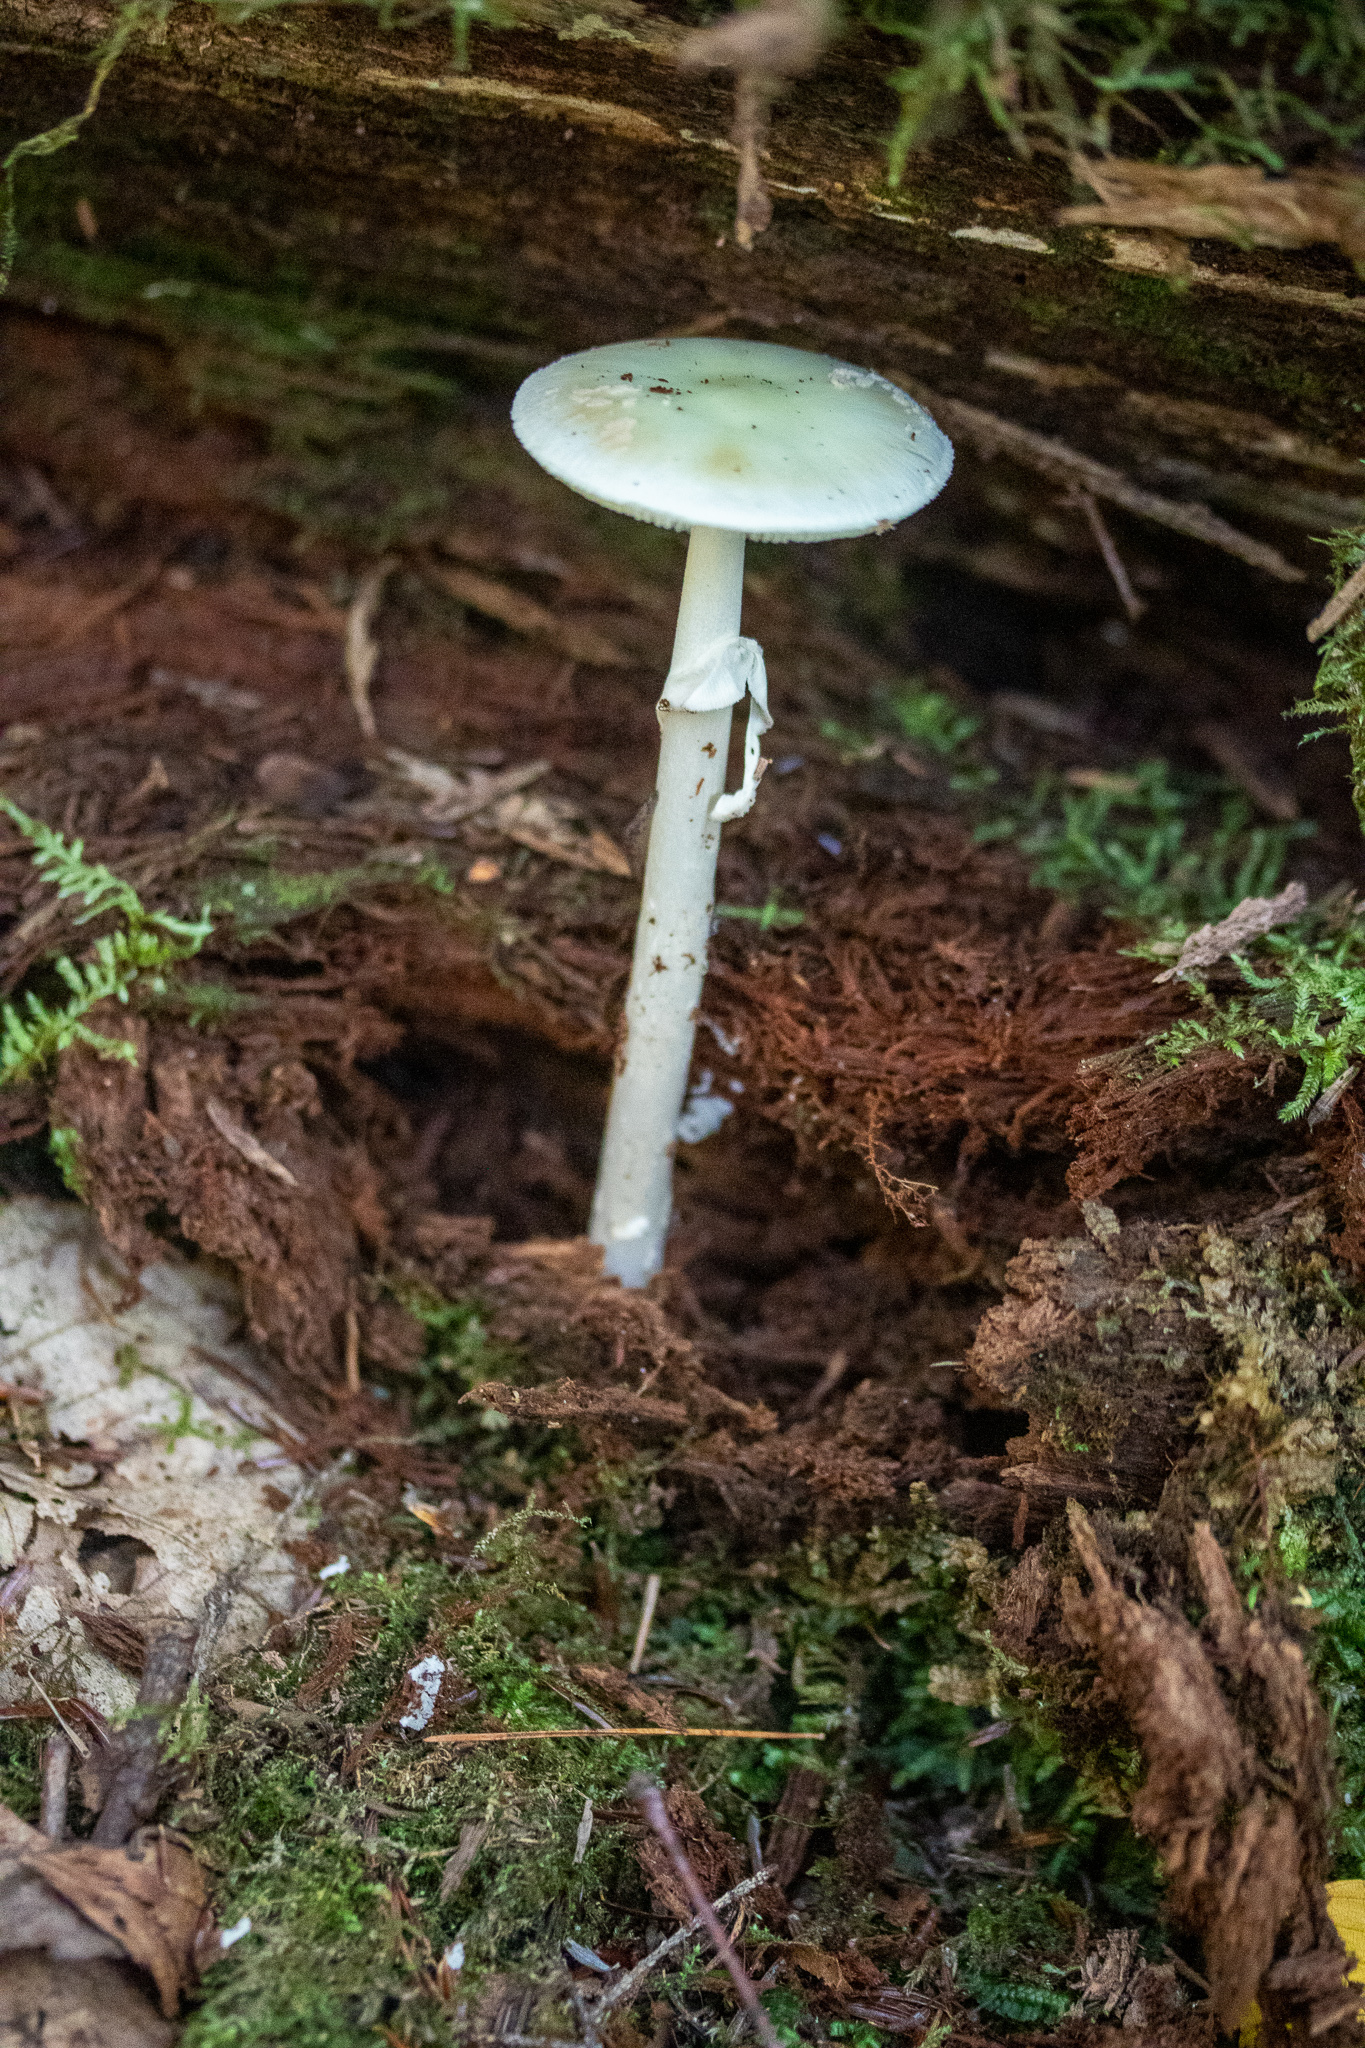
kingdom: Fungi
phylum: Basidiomycota
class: Agaricomycetes
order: Agaricales
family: Amanitaceae
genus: Amanita
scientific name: Amanita lavendula
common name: Coker's lavender staining amanita
